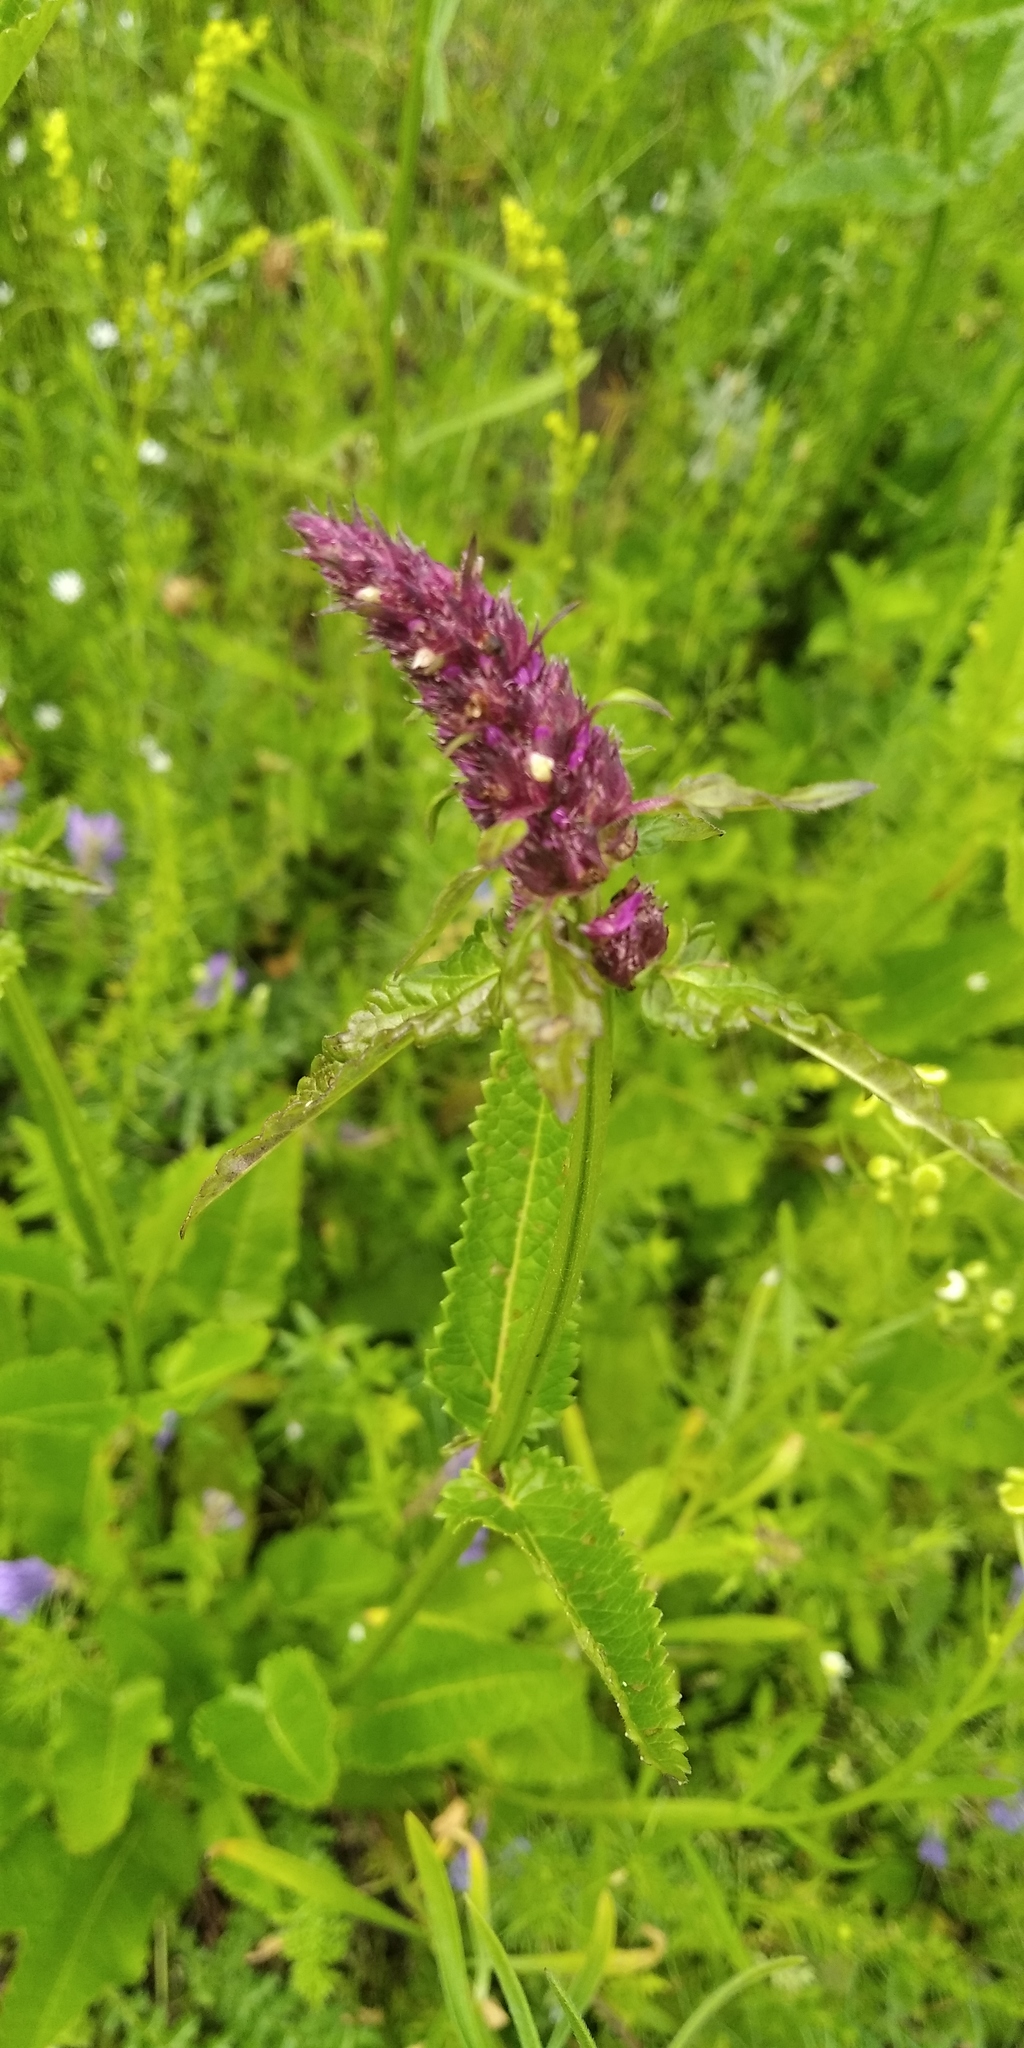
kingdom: Plantae
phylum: Tracheophyta
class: Magnoliopsida
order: Lamiales
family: Lamiaceae
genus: Betonica
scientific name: Betonica officinalis
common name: Bishop's-wort
